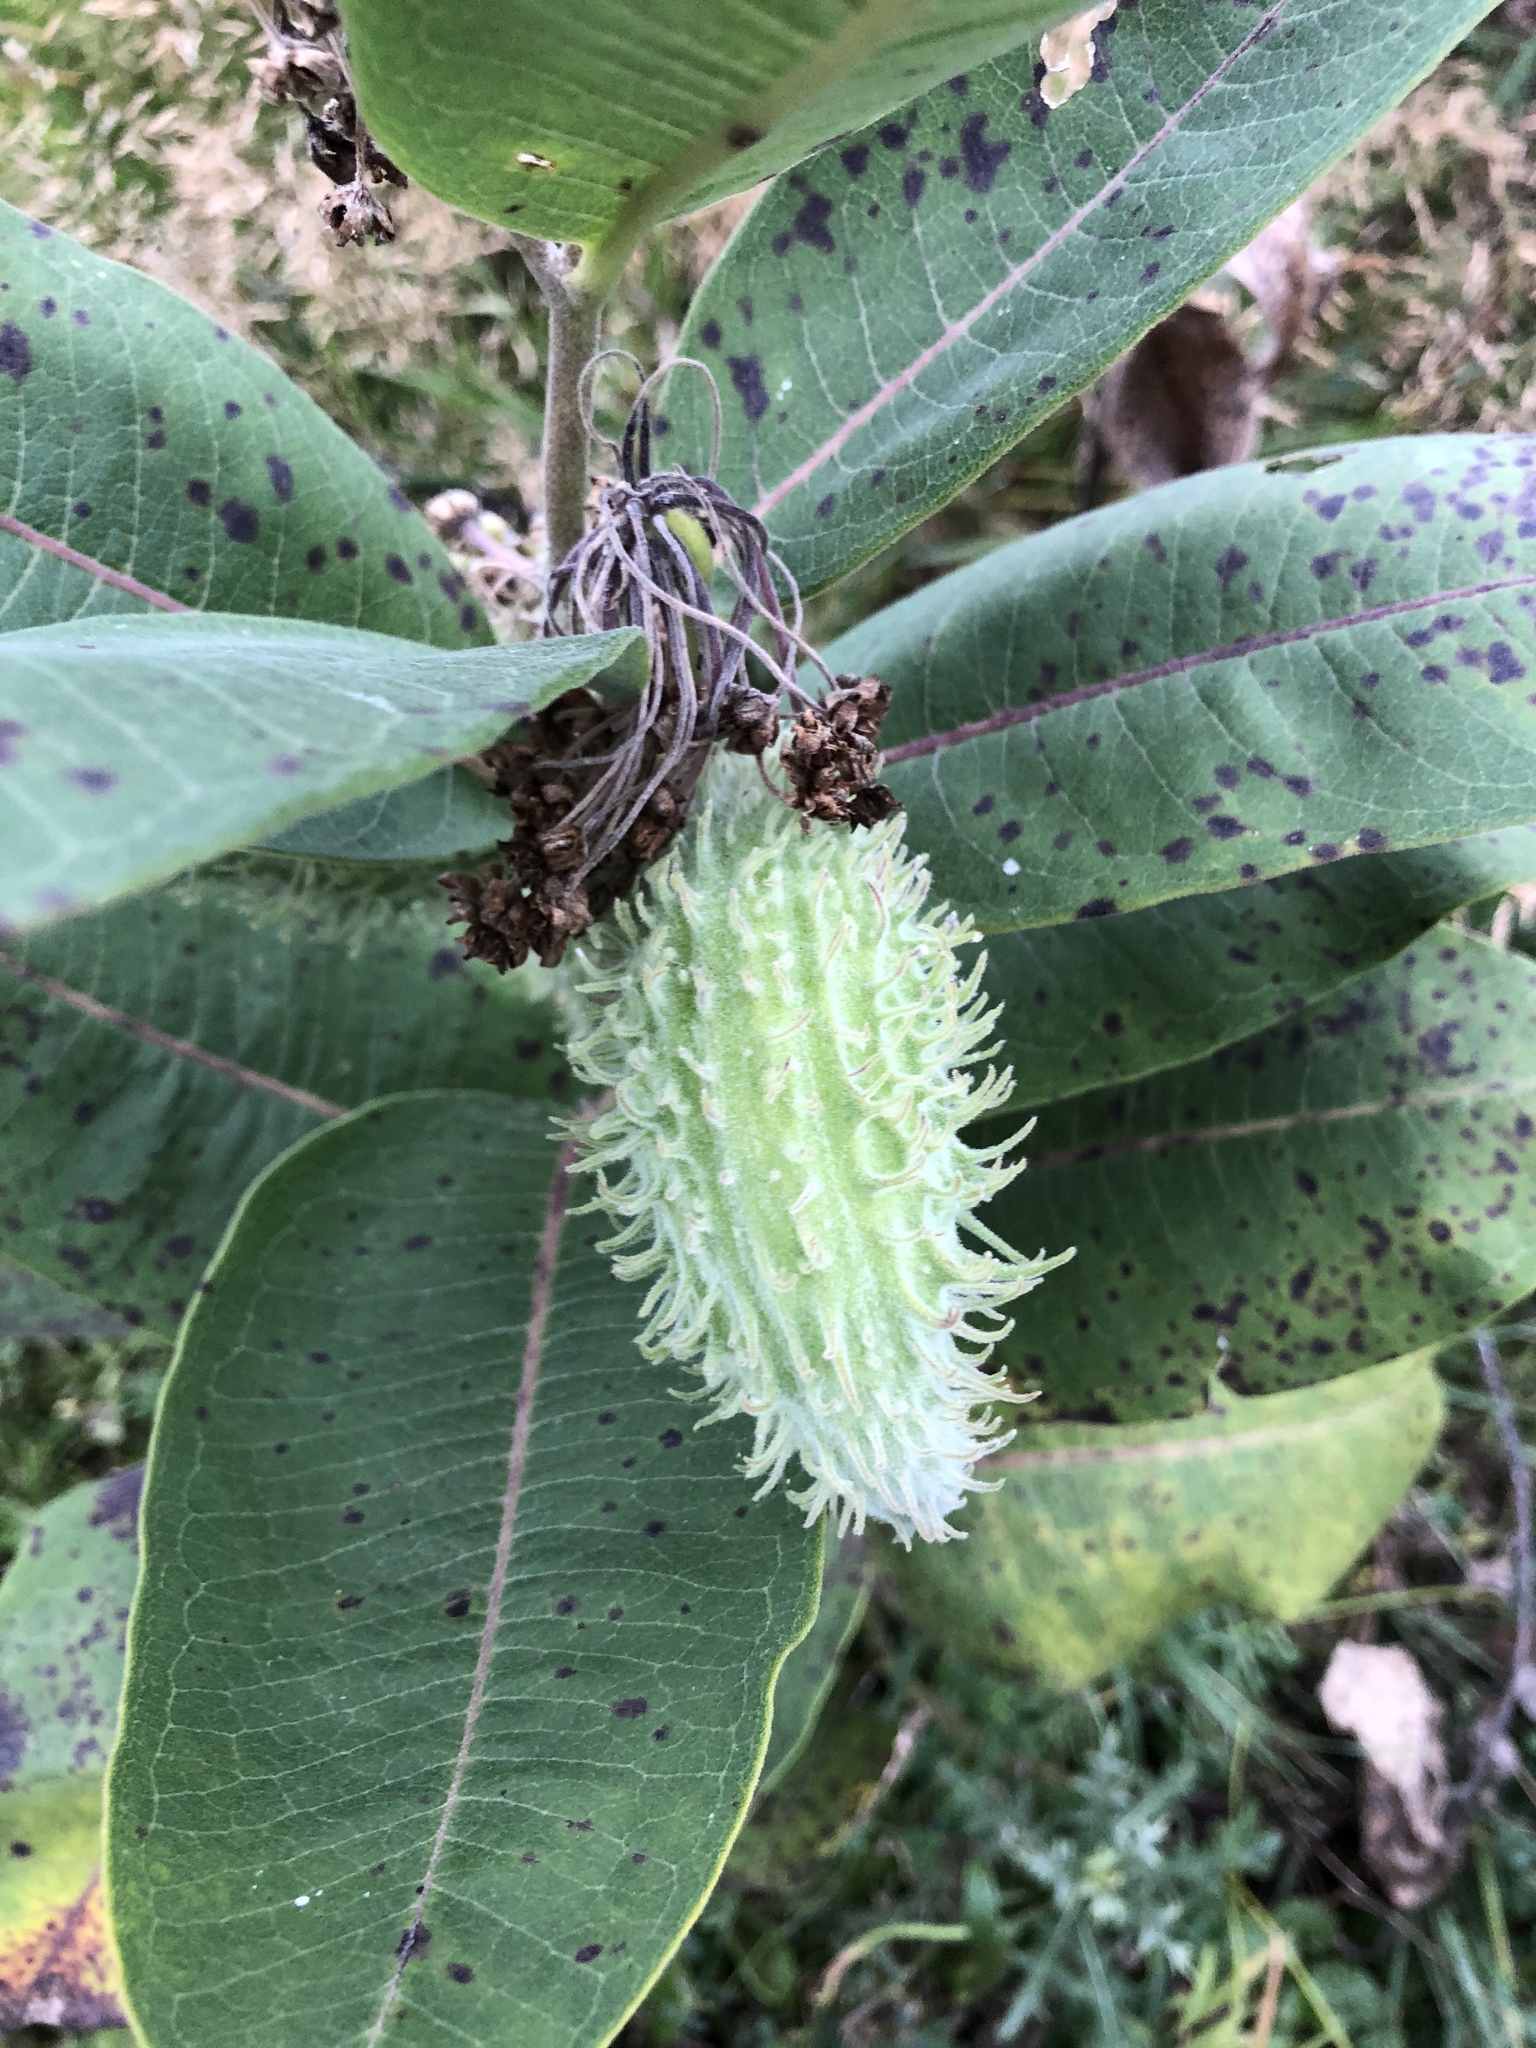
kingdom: Plantae
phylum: Tracheophyta
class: Magnoliopsida
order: Gentianales
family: Apocynaceae
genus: Asclepias
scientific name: Asclepias syriaca
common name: Common milkweed
